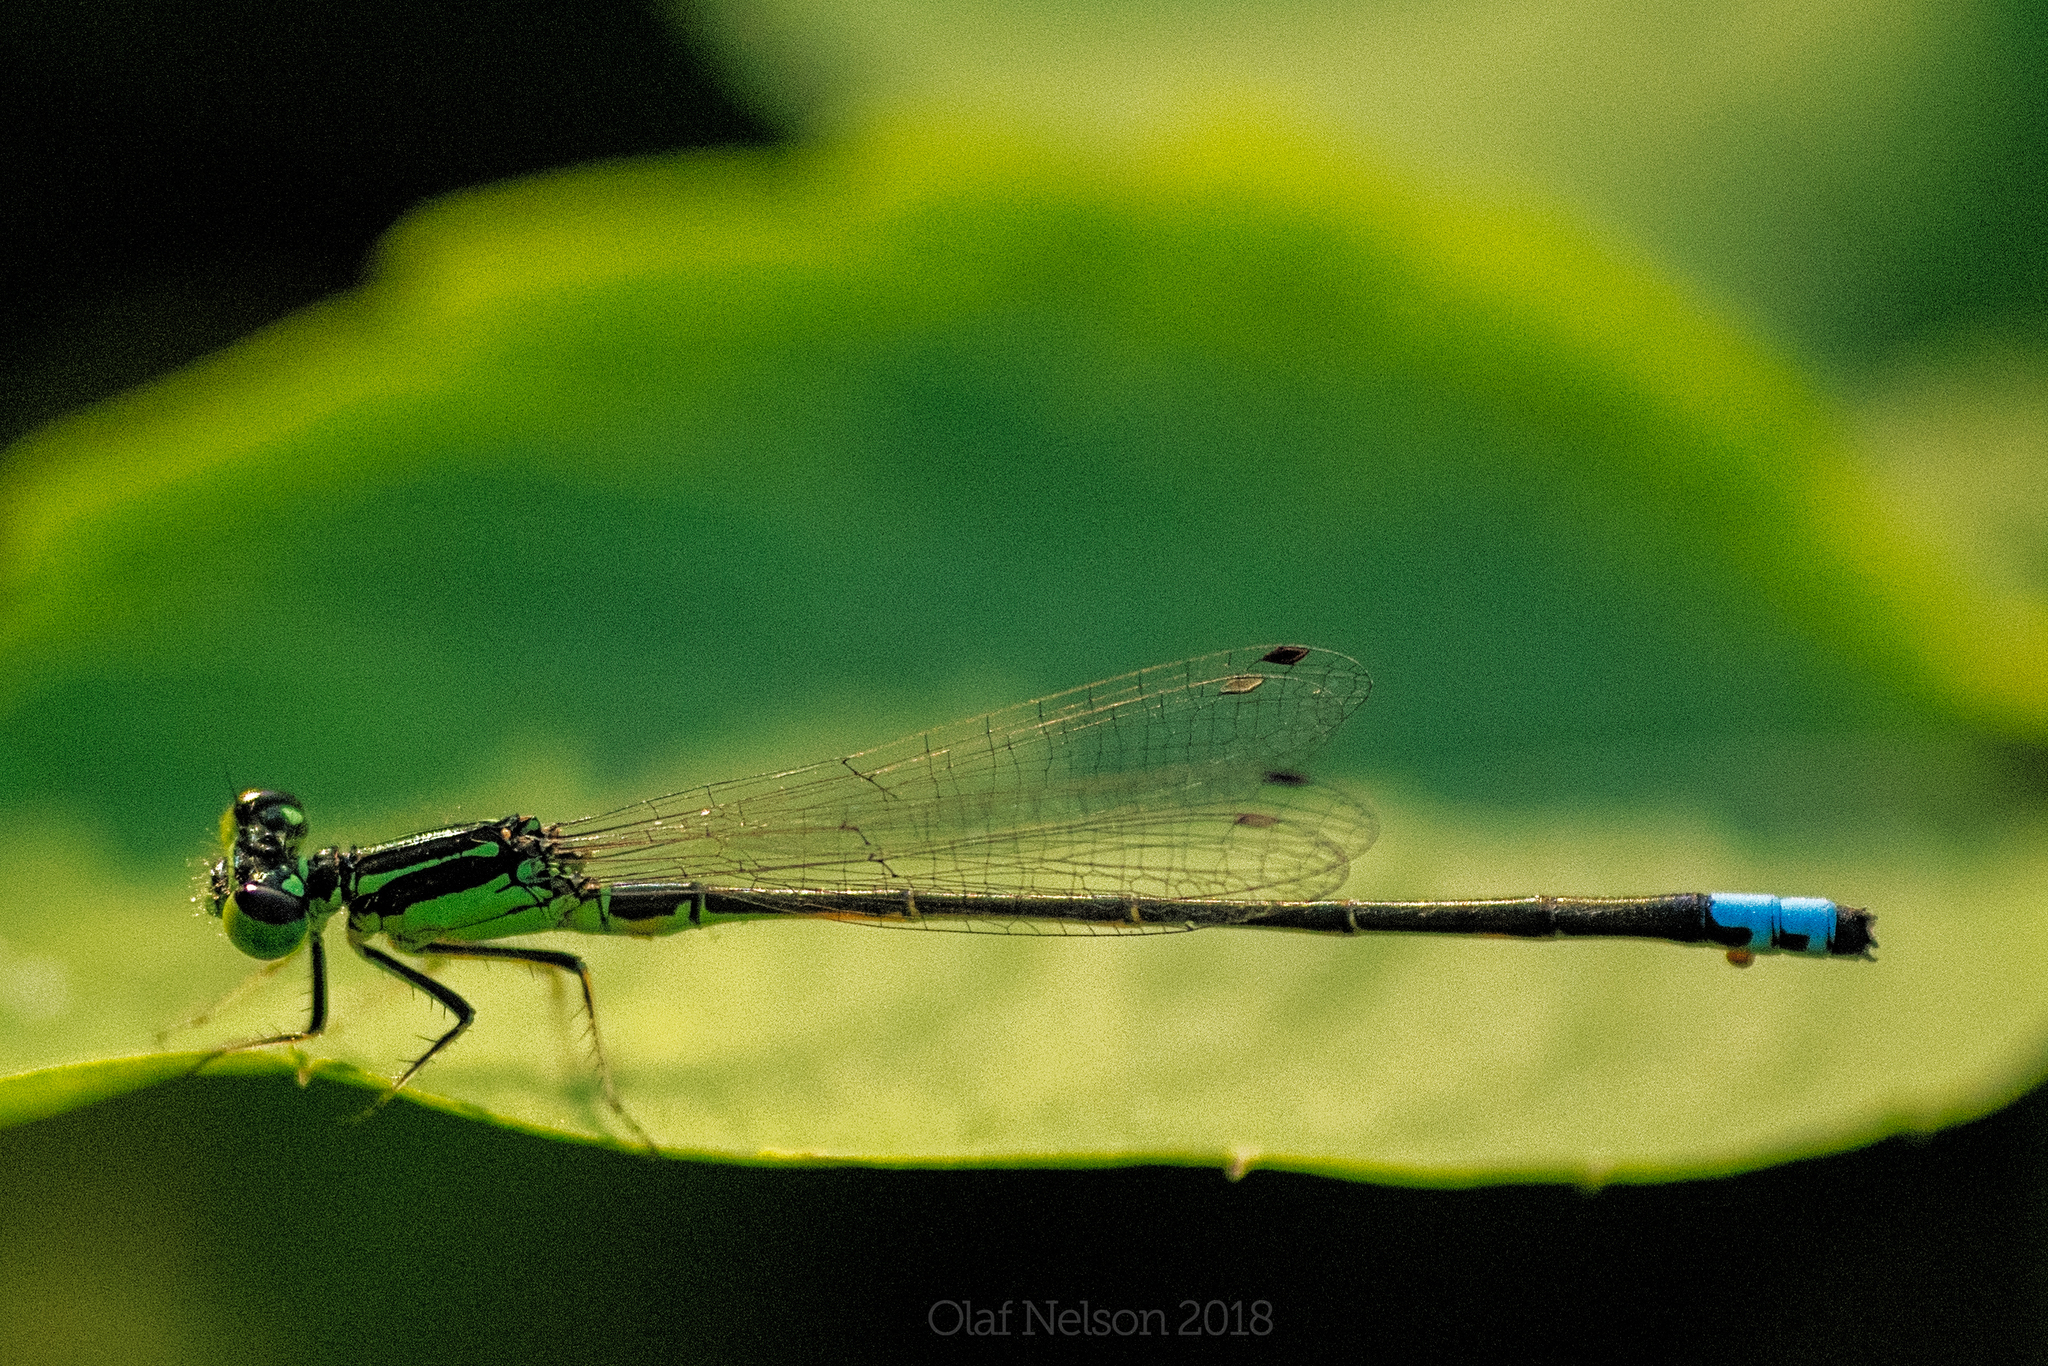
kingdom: Animalia
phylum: Arthropoda
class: Insecta
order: Odonata
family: Coenagrionidae
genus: Ischnura
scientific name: Ischnura verticalis
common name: Eastern forktail
